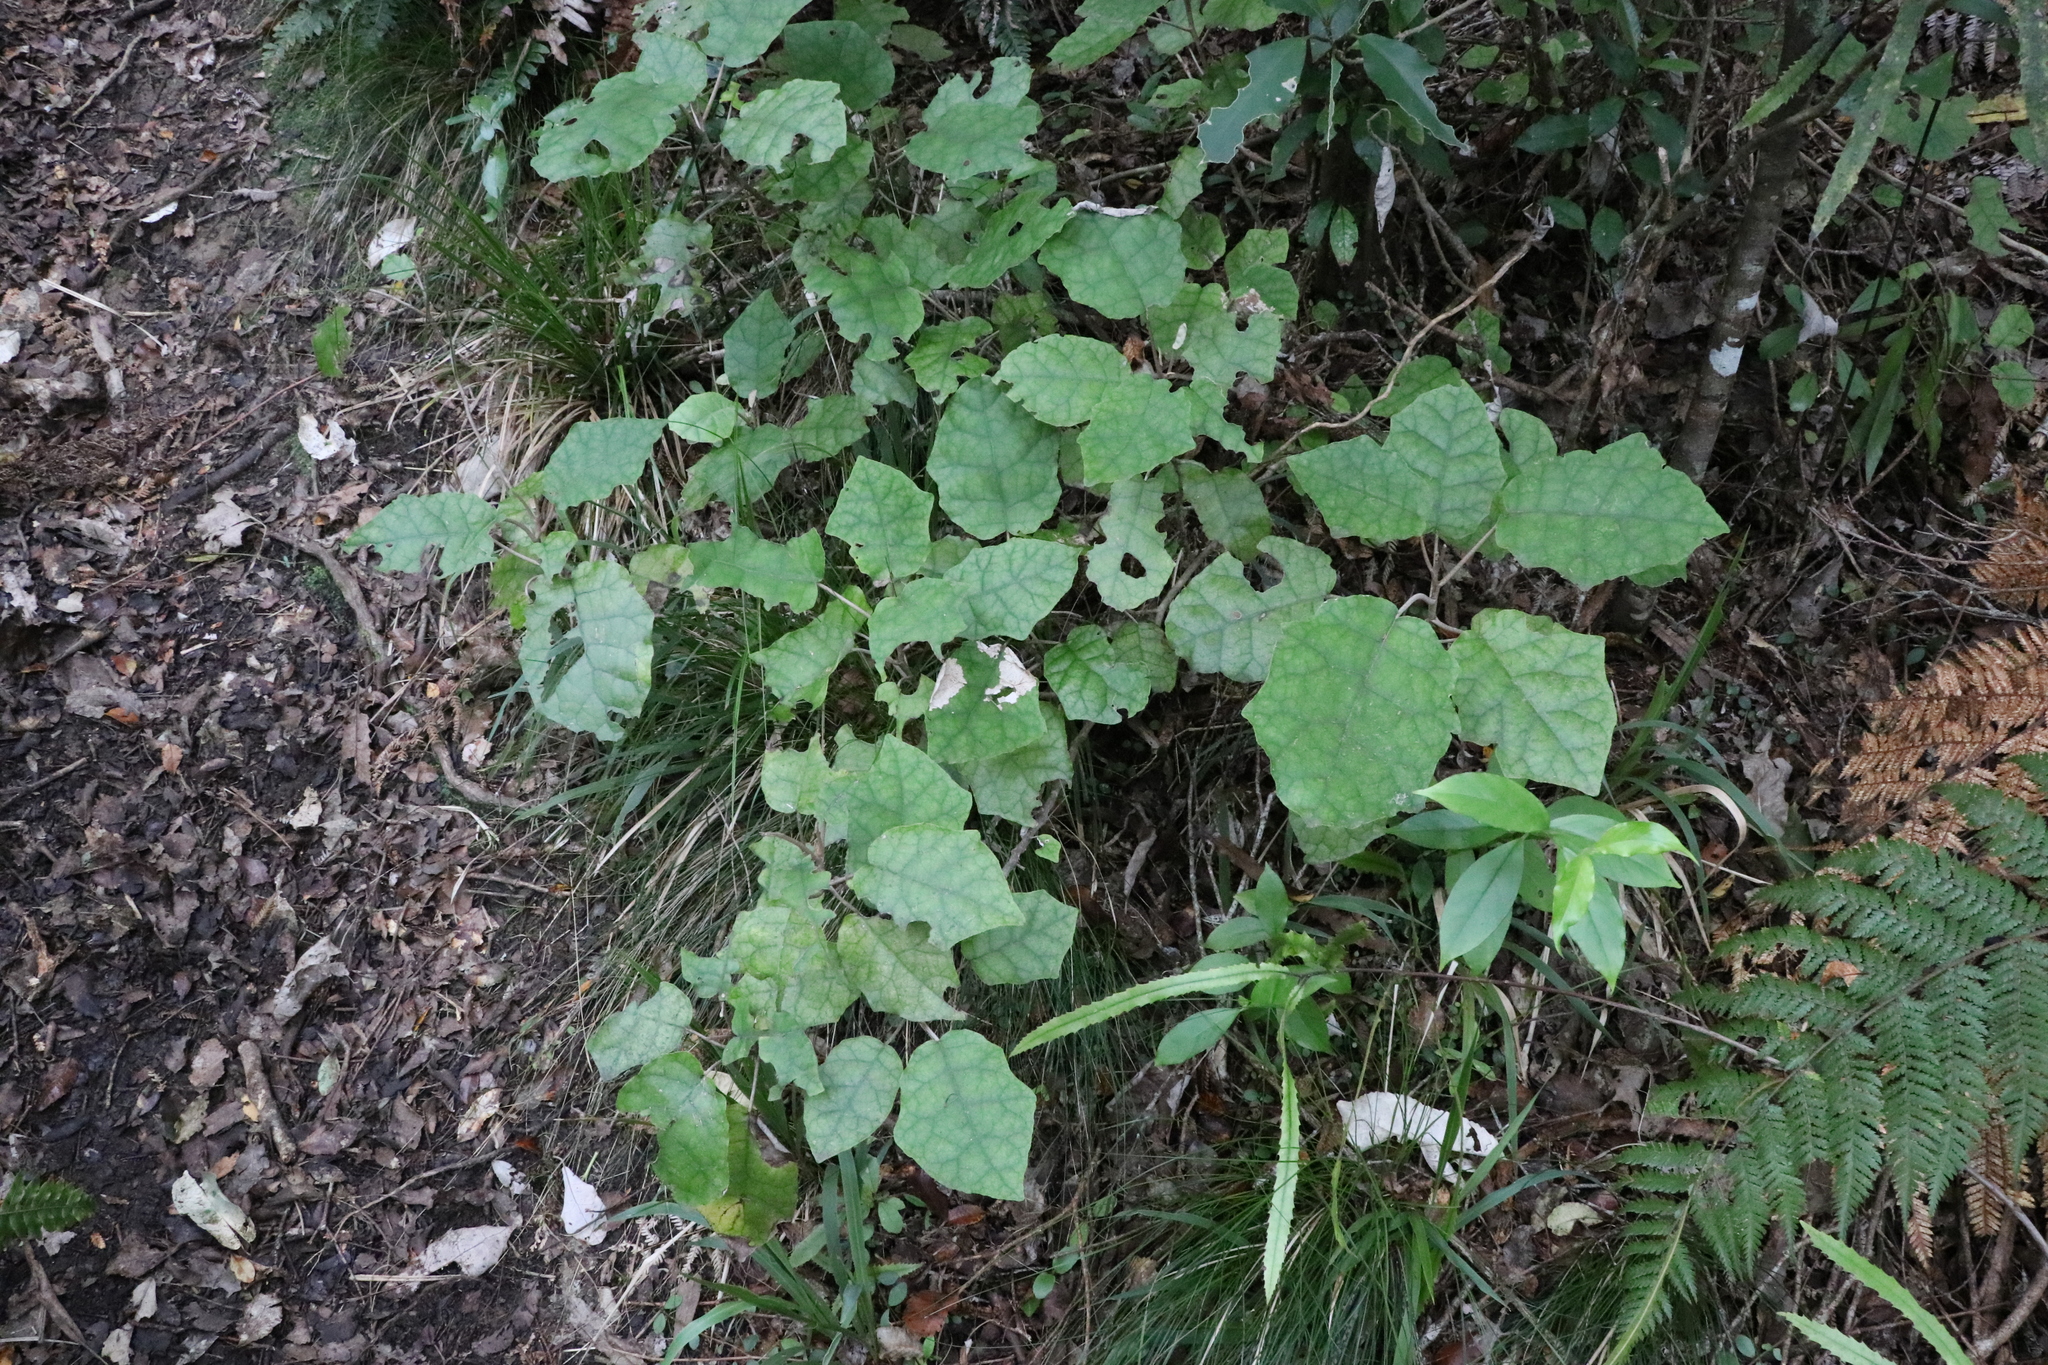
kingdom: Plantae
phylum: Tracheophyta
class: Magnoliopsida
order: Asterales
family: Asteraceae
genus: Brachyglottis
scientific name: Brachyglottis repanda
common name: Hedge ragwort
